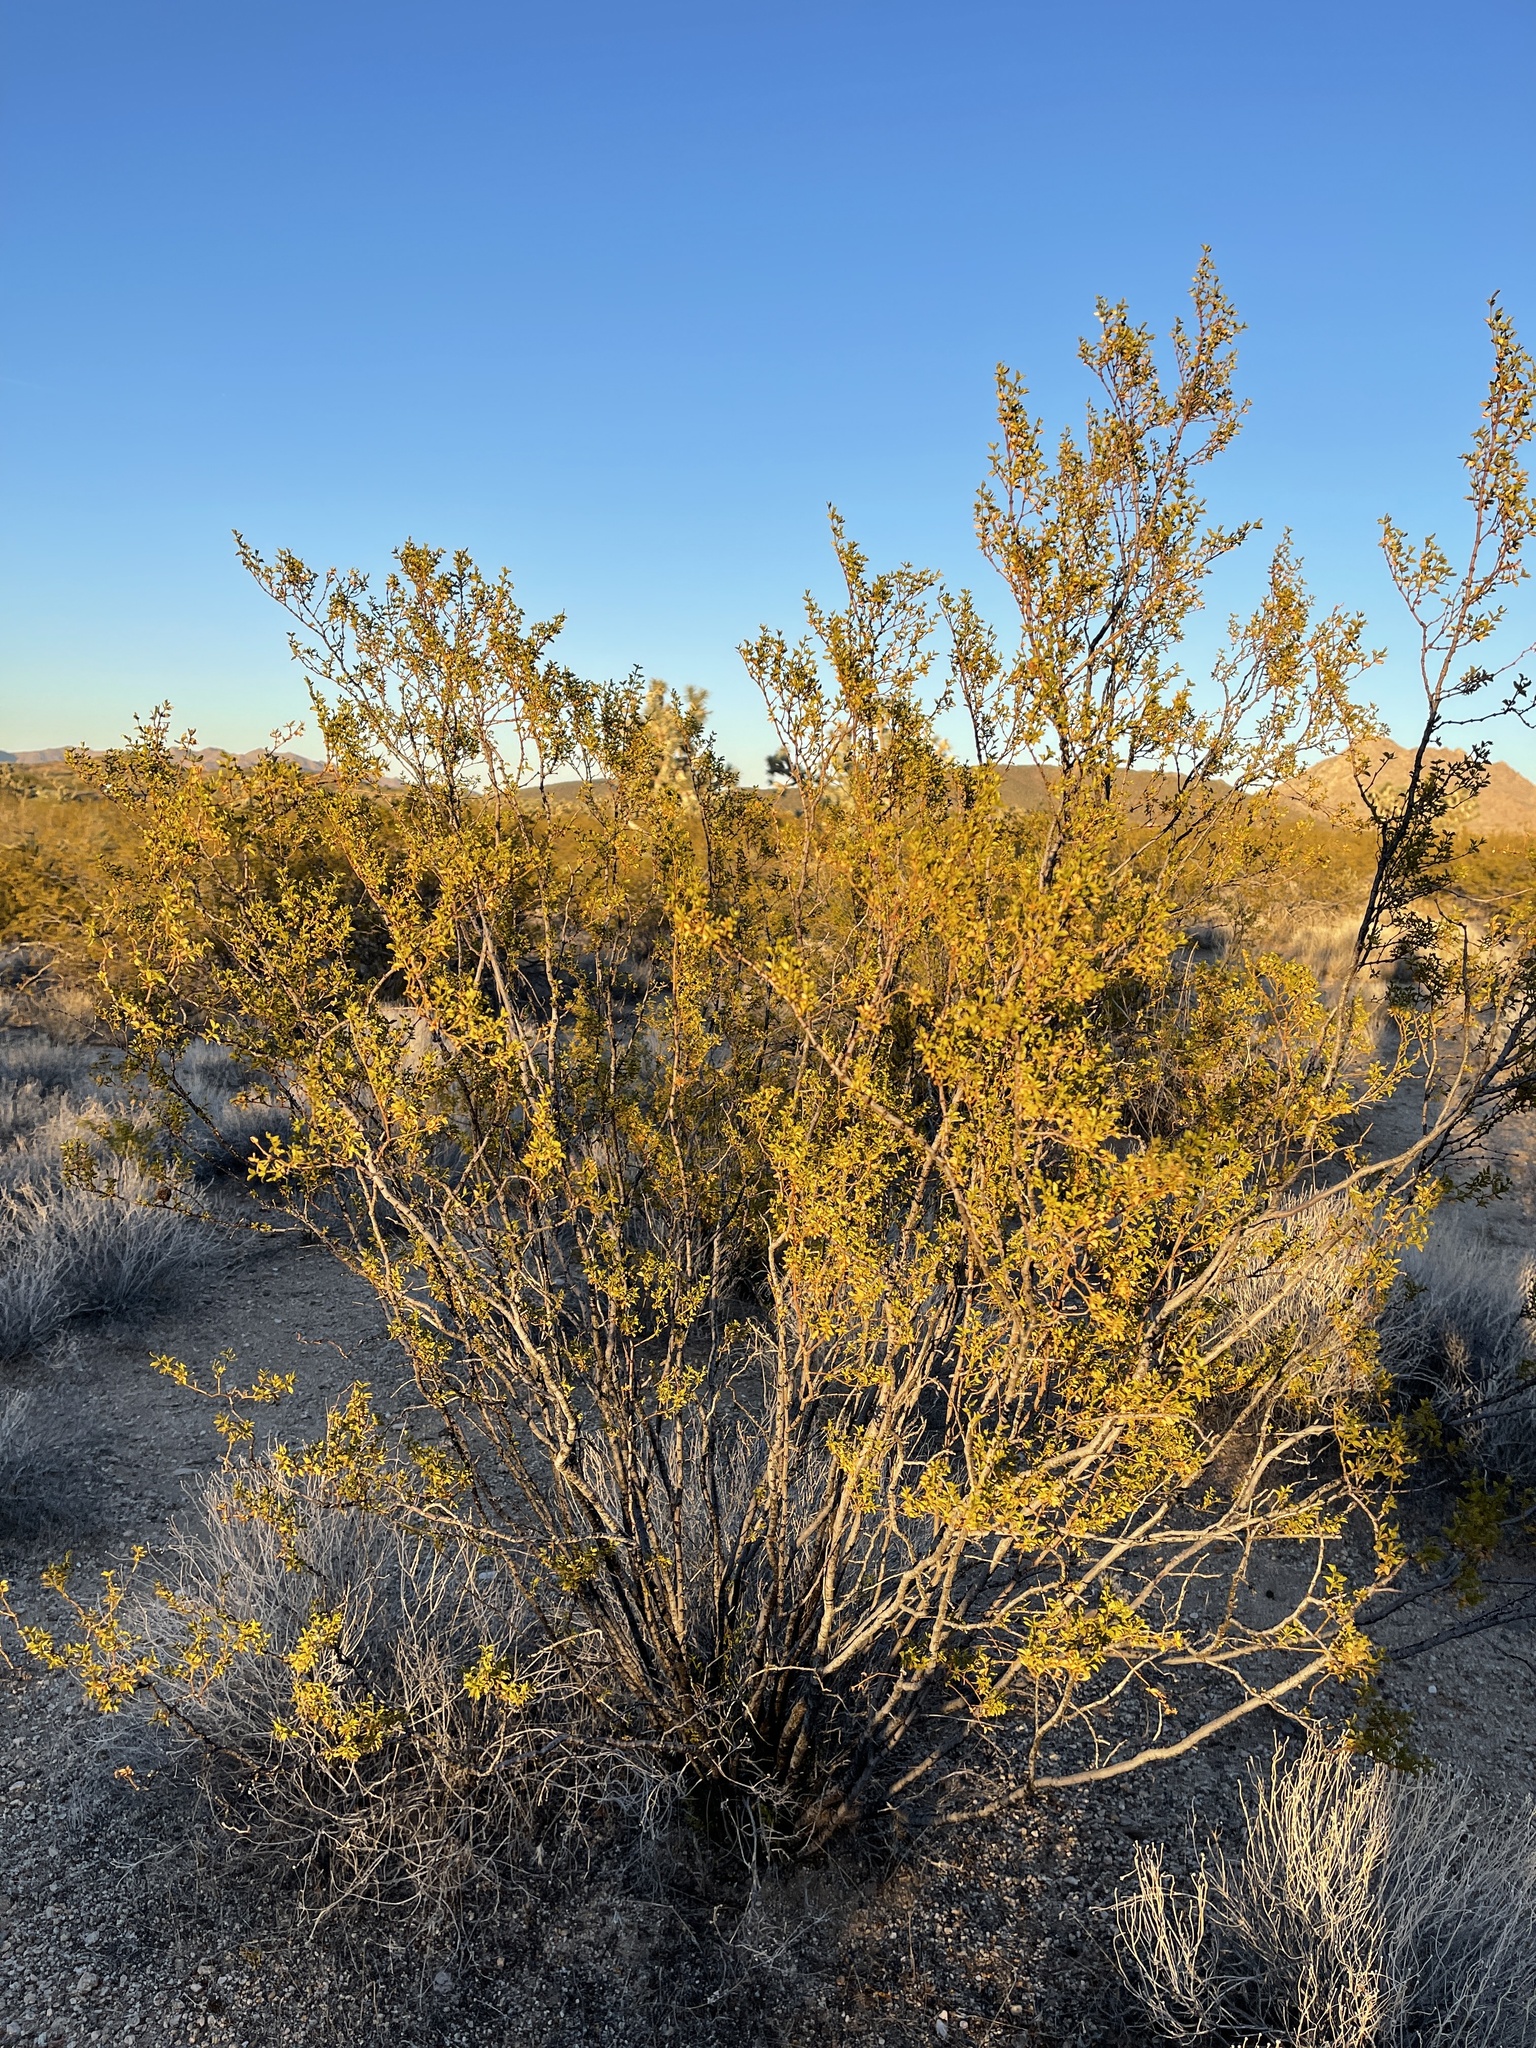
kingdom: Plantae
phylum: Tracheophyta
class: Magnoliopsida
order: Zygophyllales
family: Zygophyllaceae
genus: Larrea
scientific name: Larrea tridentata
